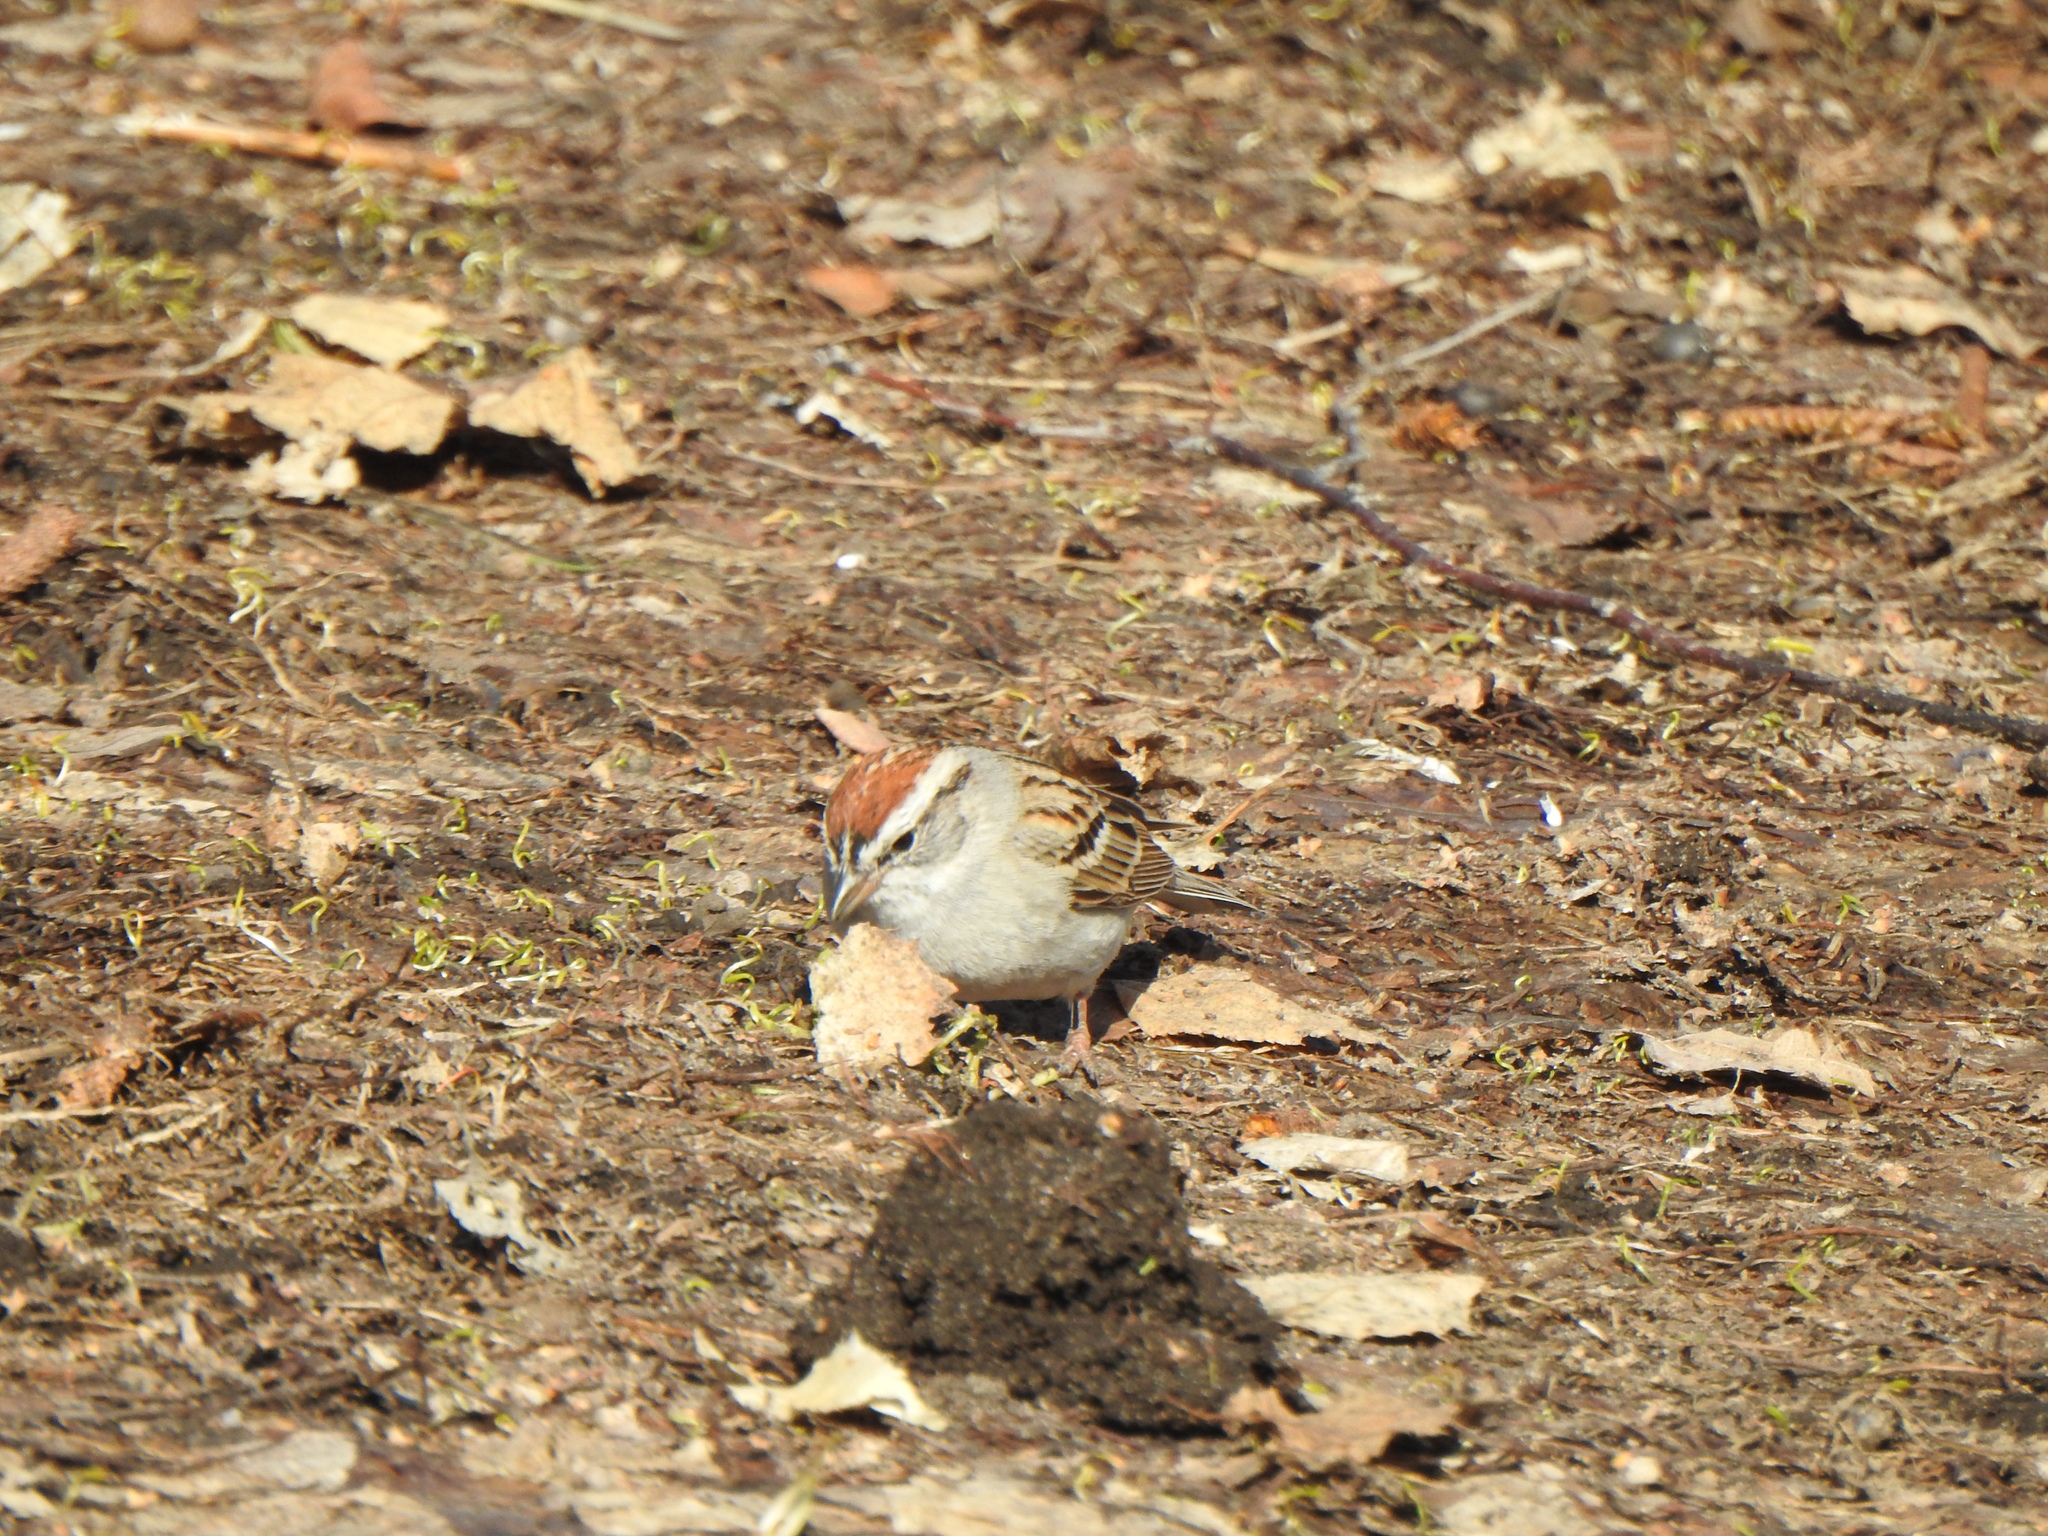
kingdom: Animalia
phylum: Chordata
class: Aves
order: Passeriformes
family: Passerellidae
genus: Spizella
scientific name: Spizella passerina
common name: Chipping sparrow
